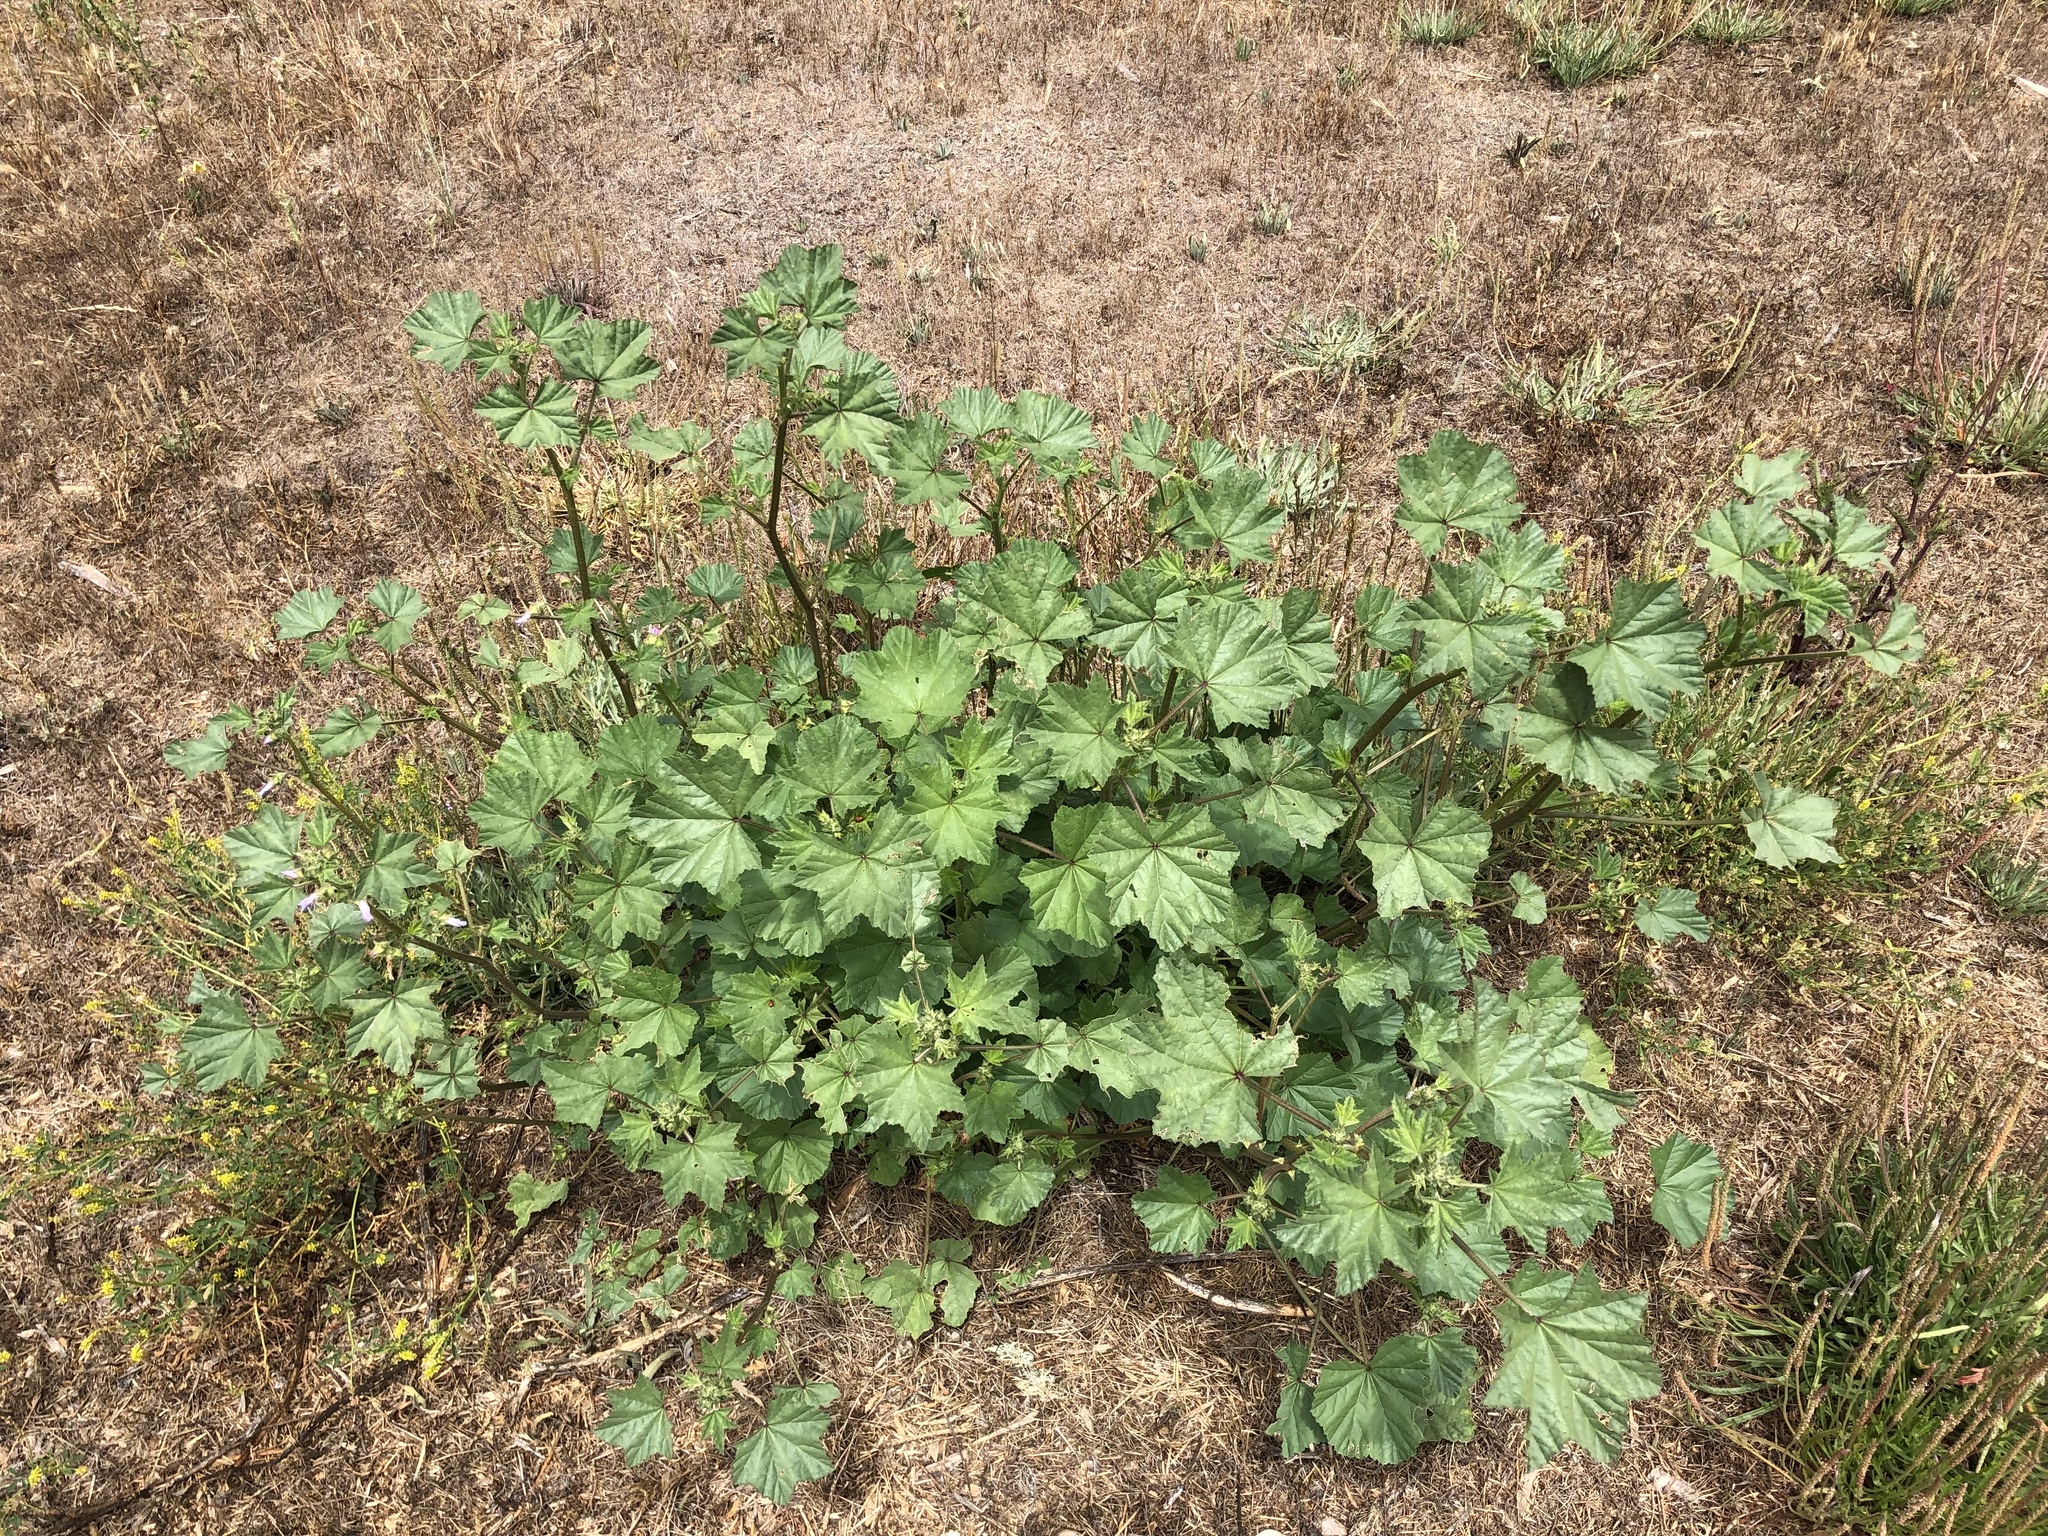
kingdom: Plantae
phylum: Tracheophyta
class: Magnoliopsida
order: Malvales
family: Malvaceae
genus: Malva
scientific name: Malva nicaeensis
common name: French mallow
